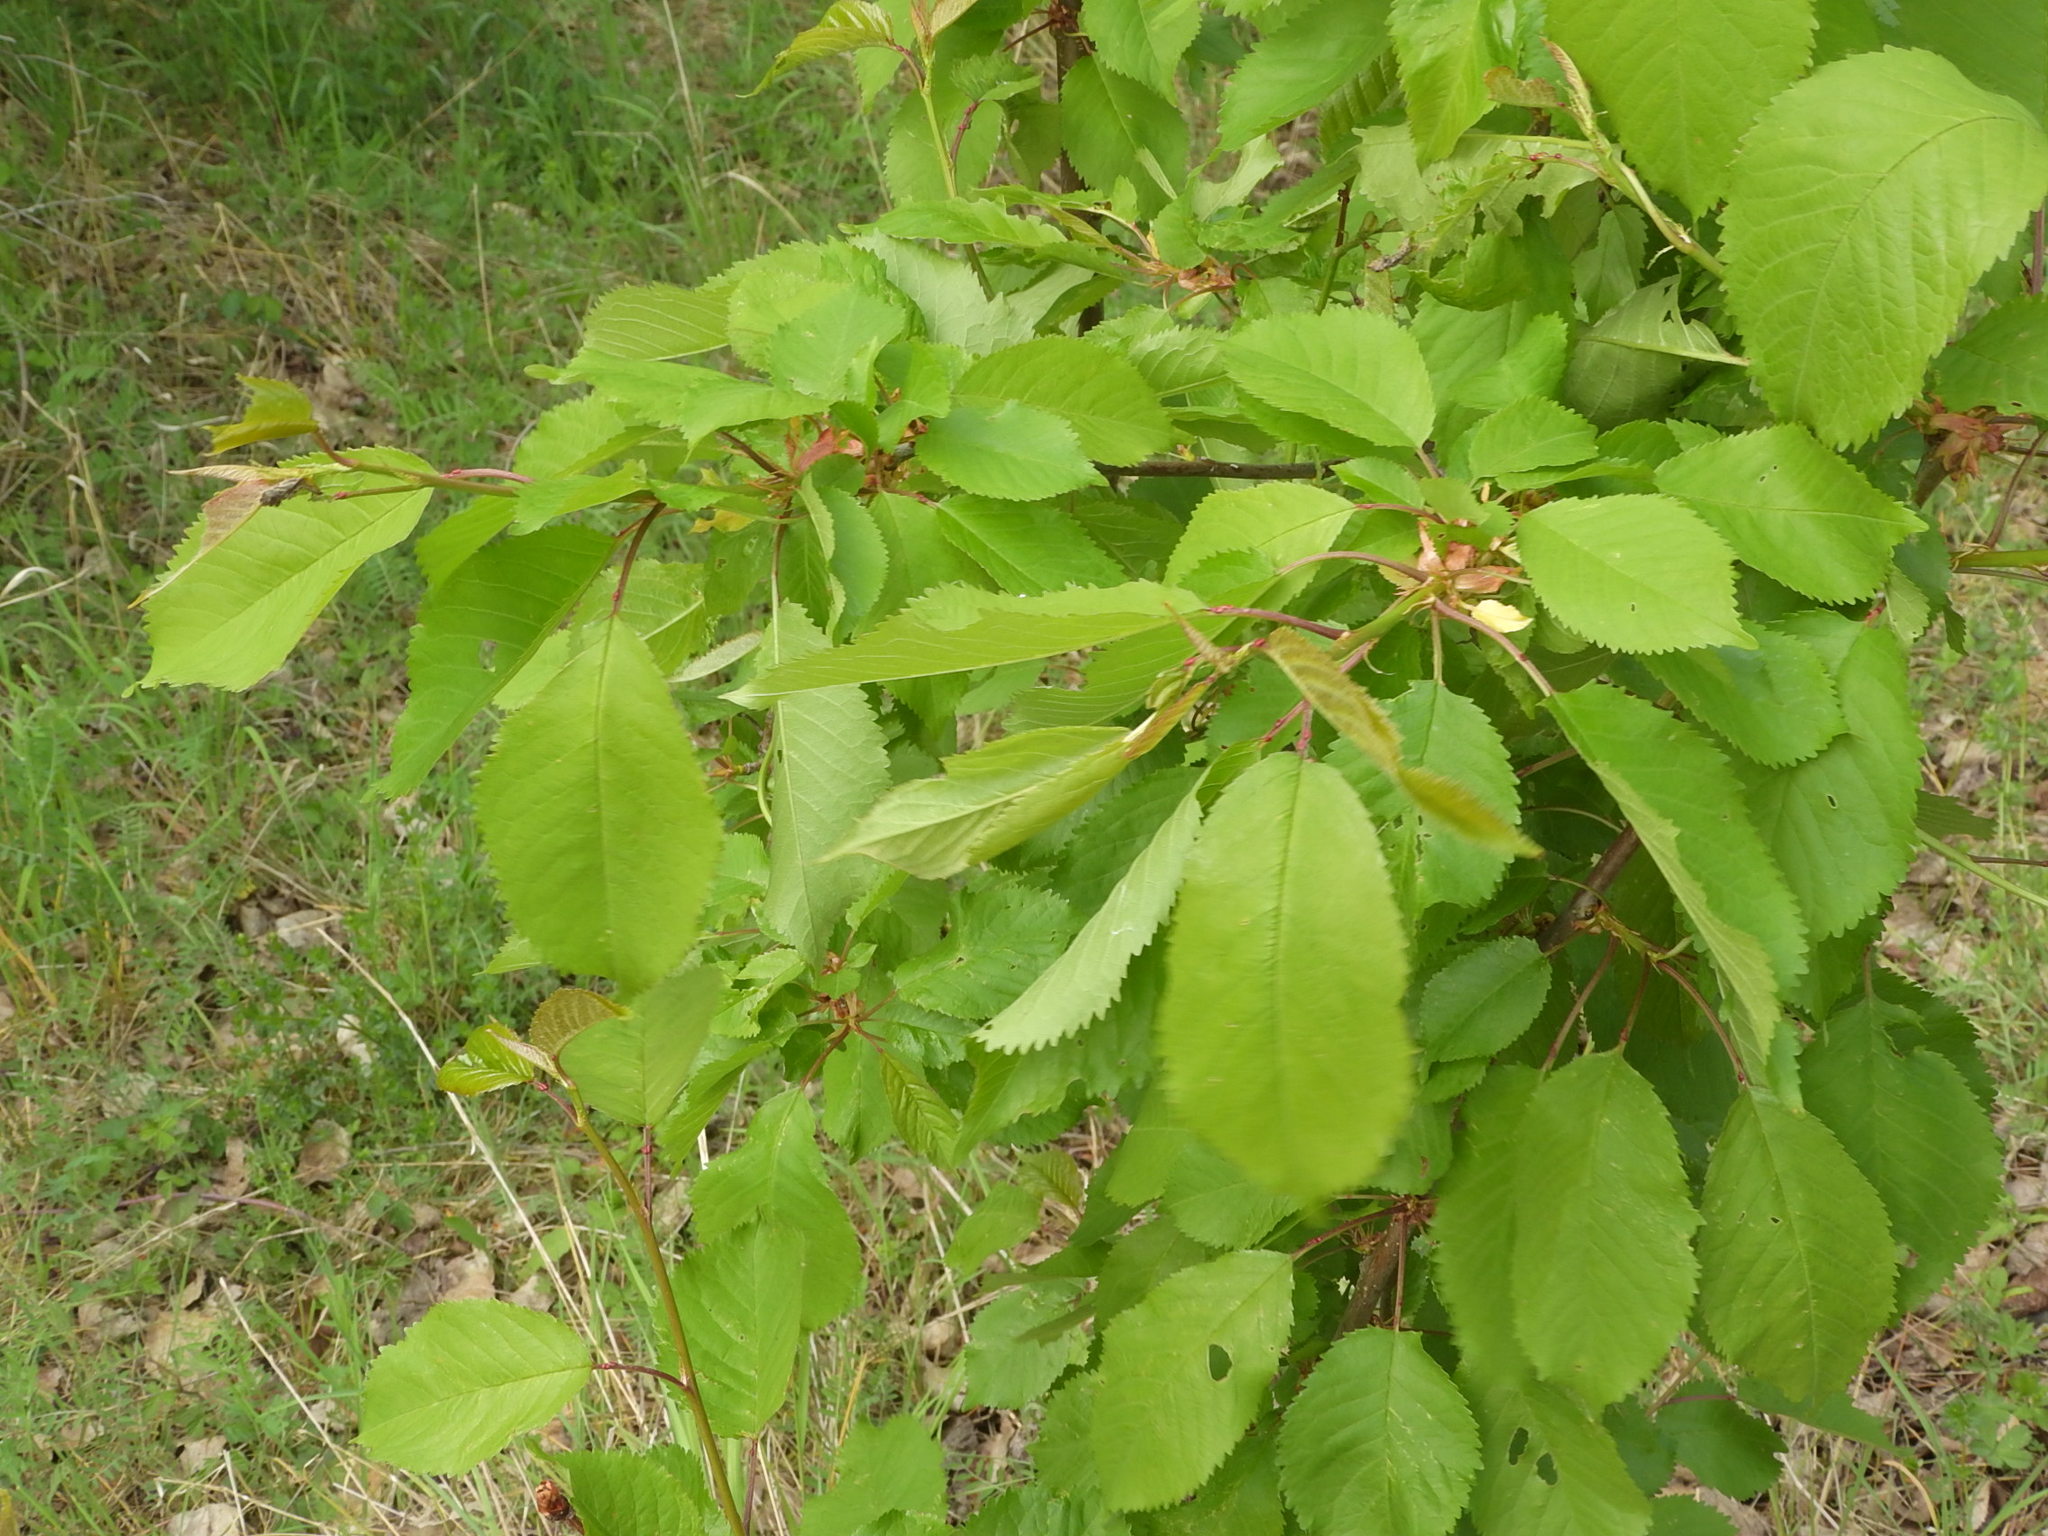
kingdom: Plantae
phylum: Tracheophyta
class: Magnoliopsida
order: Rosales
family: Rosaceae
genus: Prunus
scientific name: Prunus avium
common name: Sweet cherry
